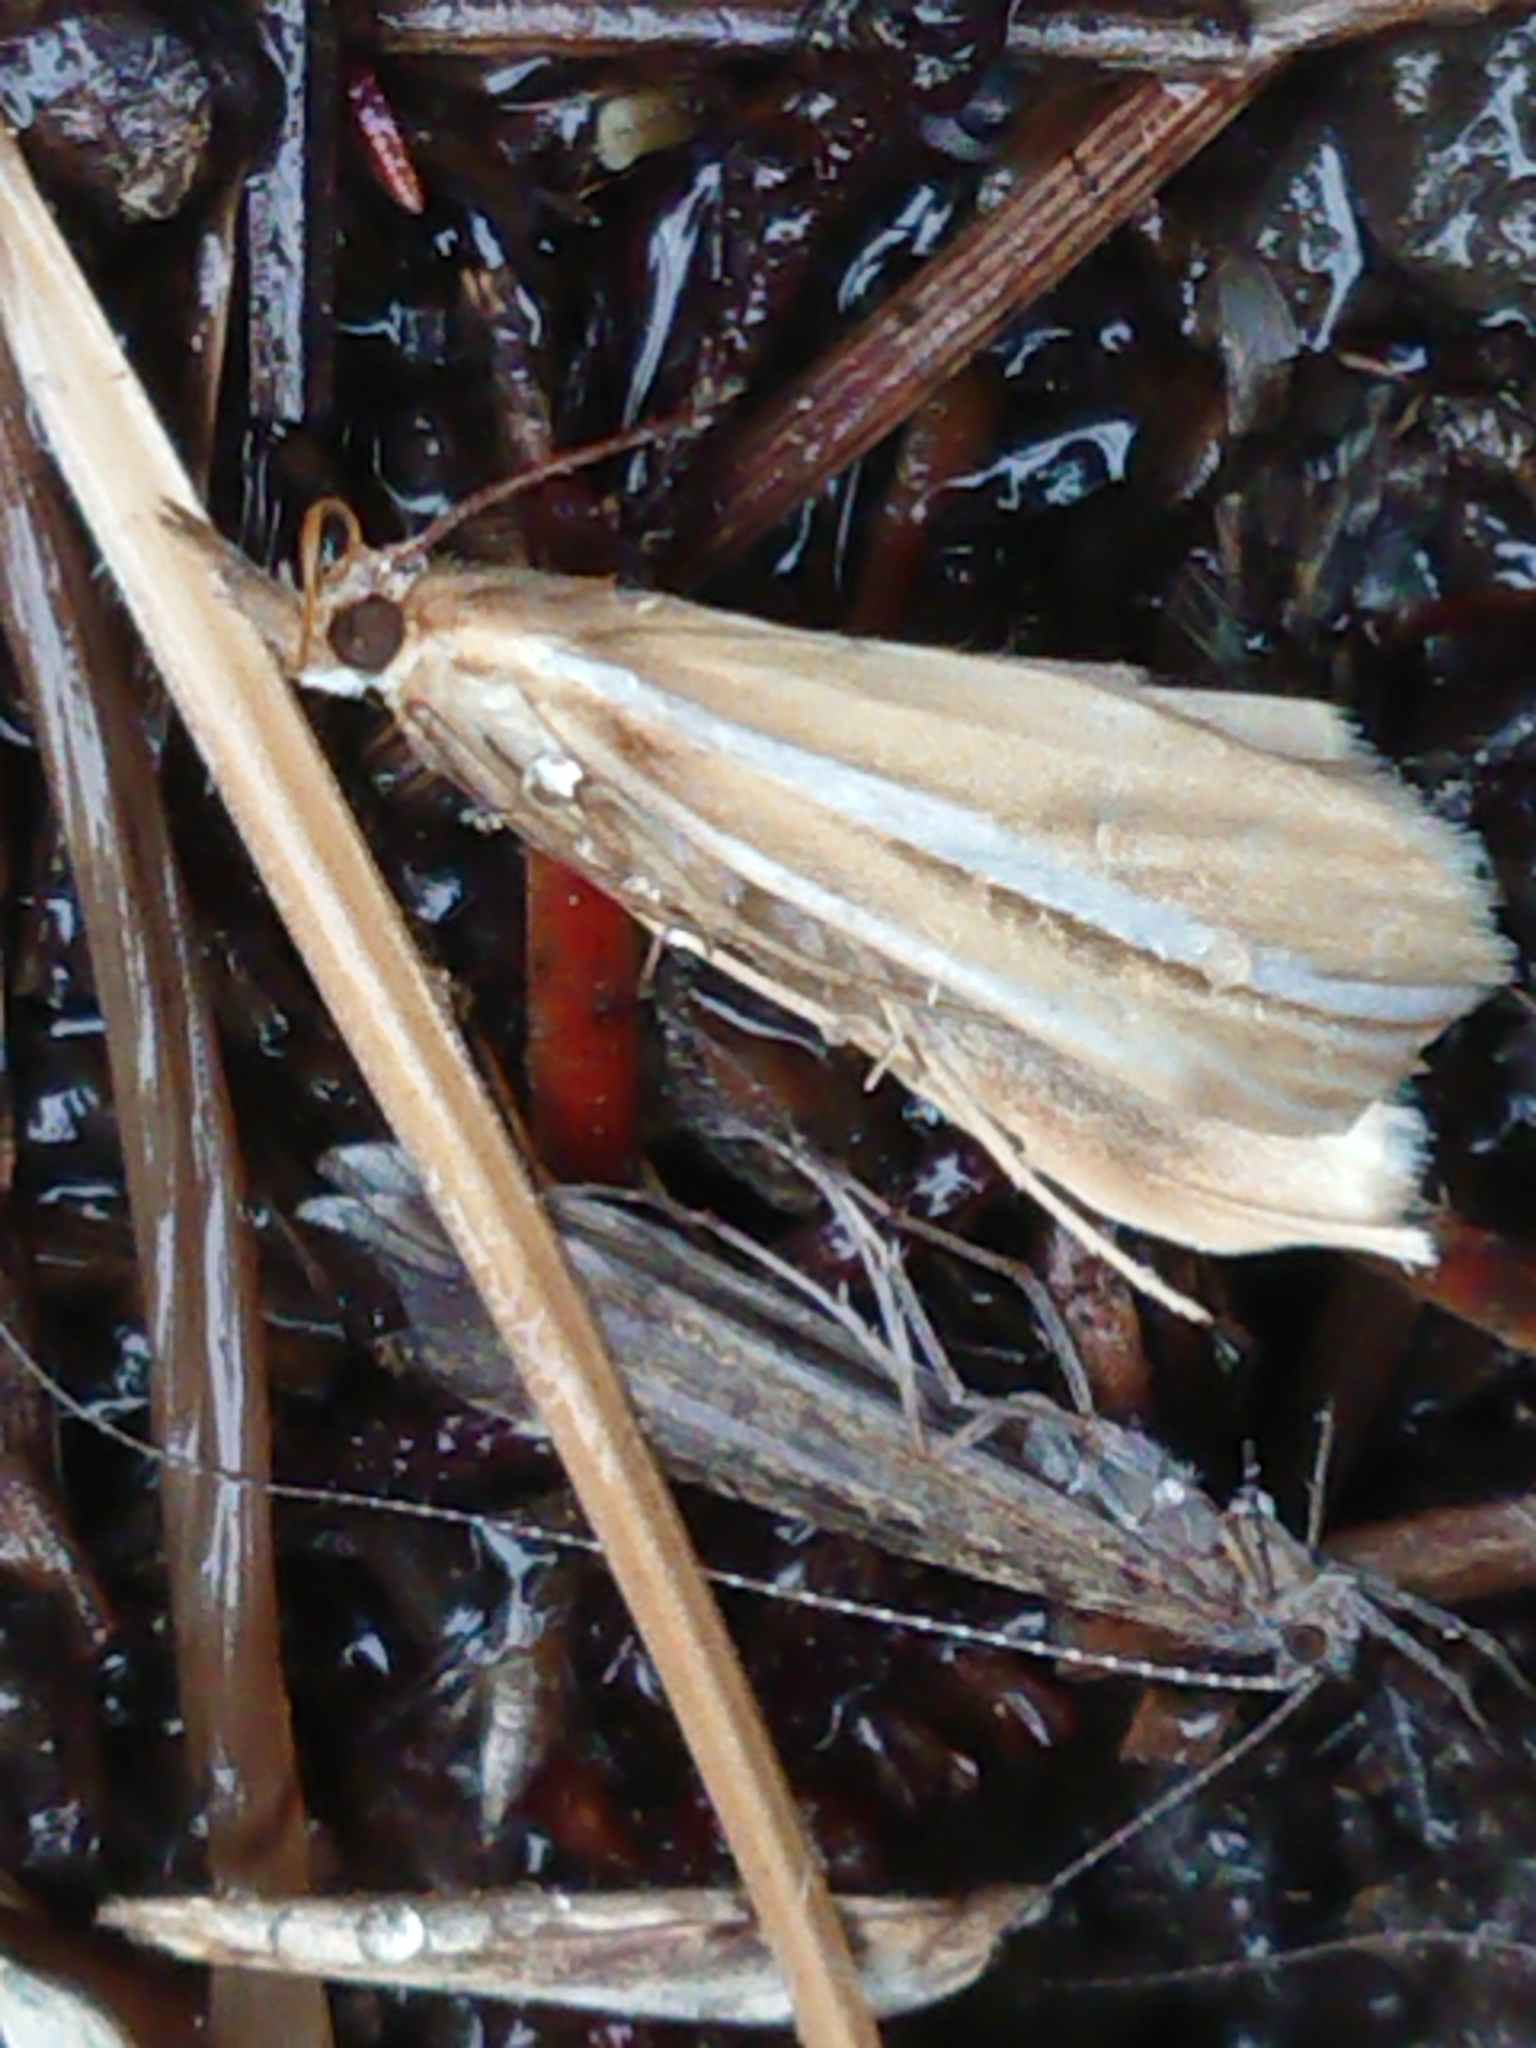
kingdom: Animalia
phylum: Arthropoda
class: Insecta
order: Lepidoptera
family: Crambidae
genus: Orocrambus
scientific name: Orocrambus lewisi
